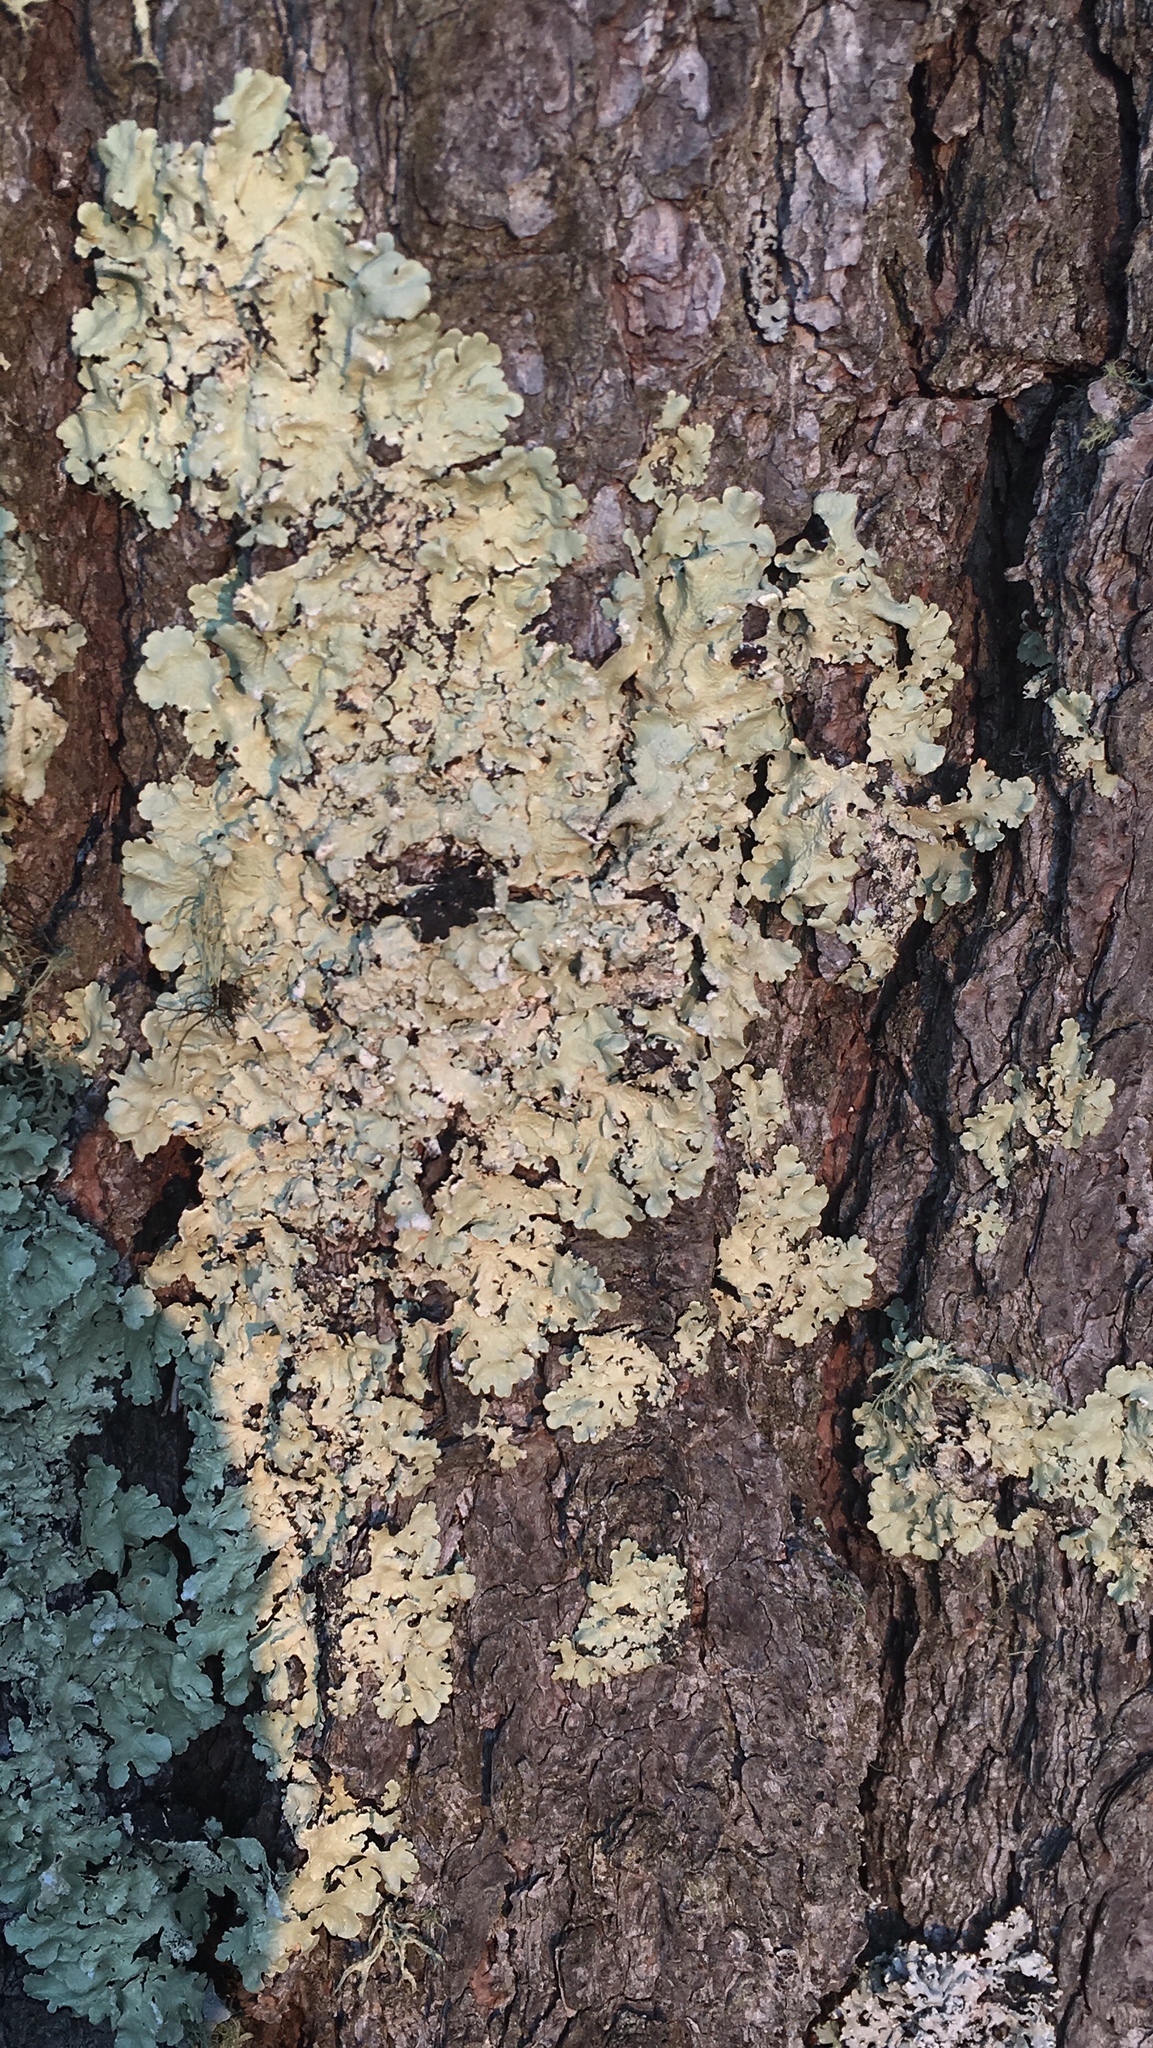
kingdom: Fungi
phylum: Ascomycota
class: Lecanoromycetes
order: Lecanorales
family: Parmeliaceae
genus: Flavoparmelia
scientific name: Flavoparmelia caperata
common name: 40-mile per hour lichen
